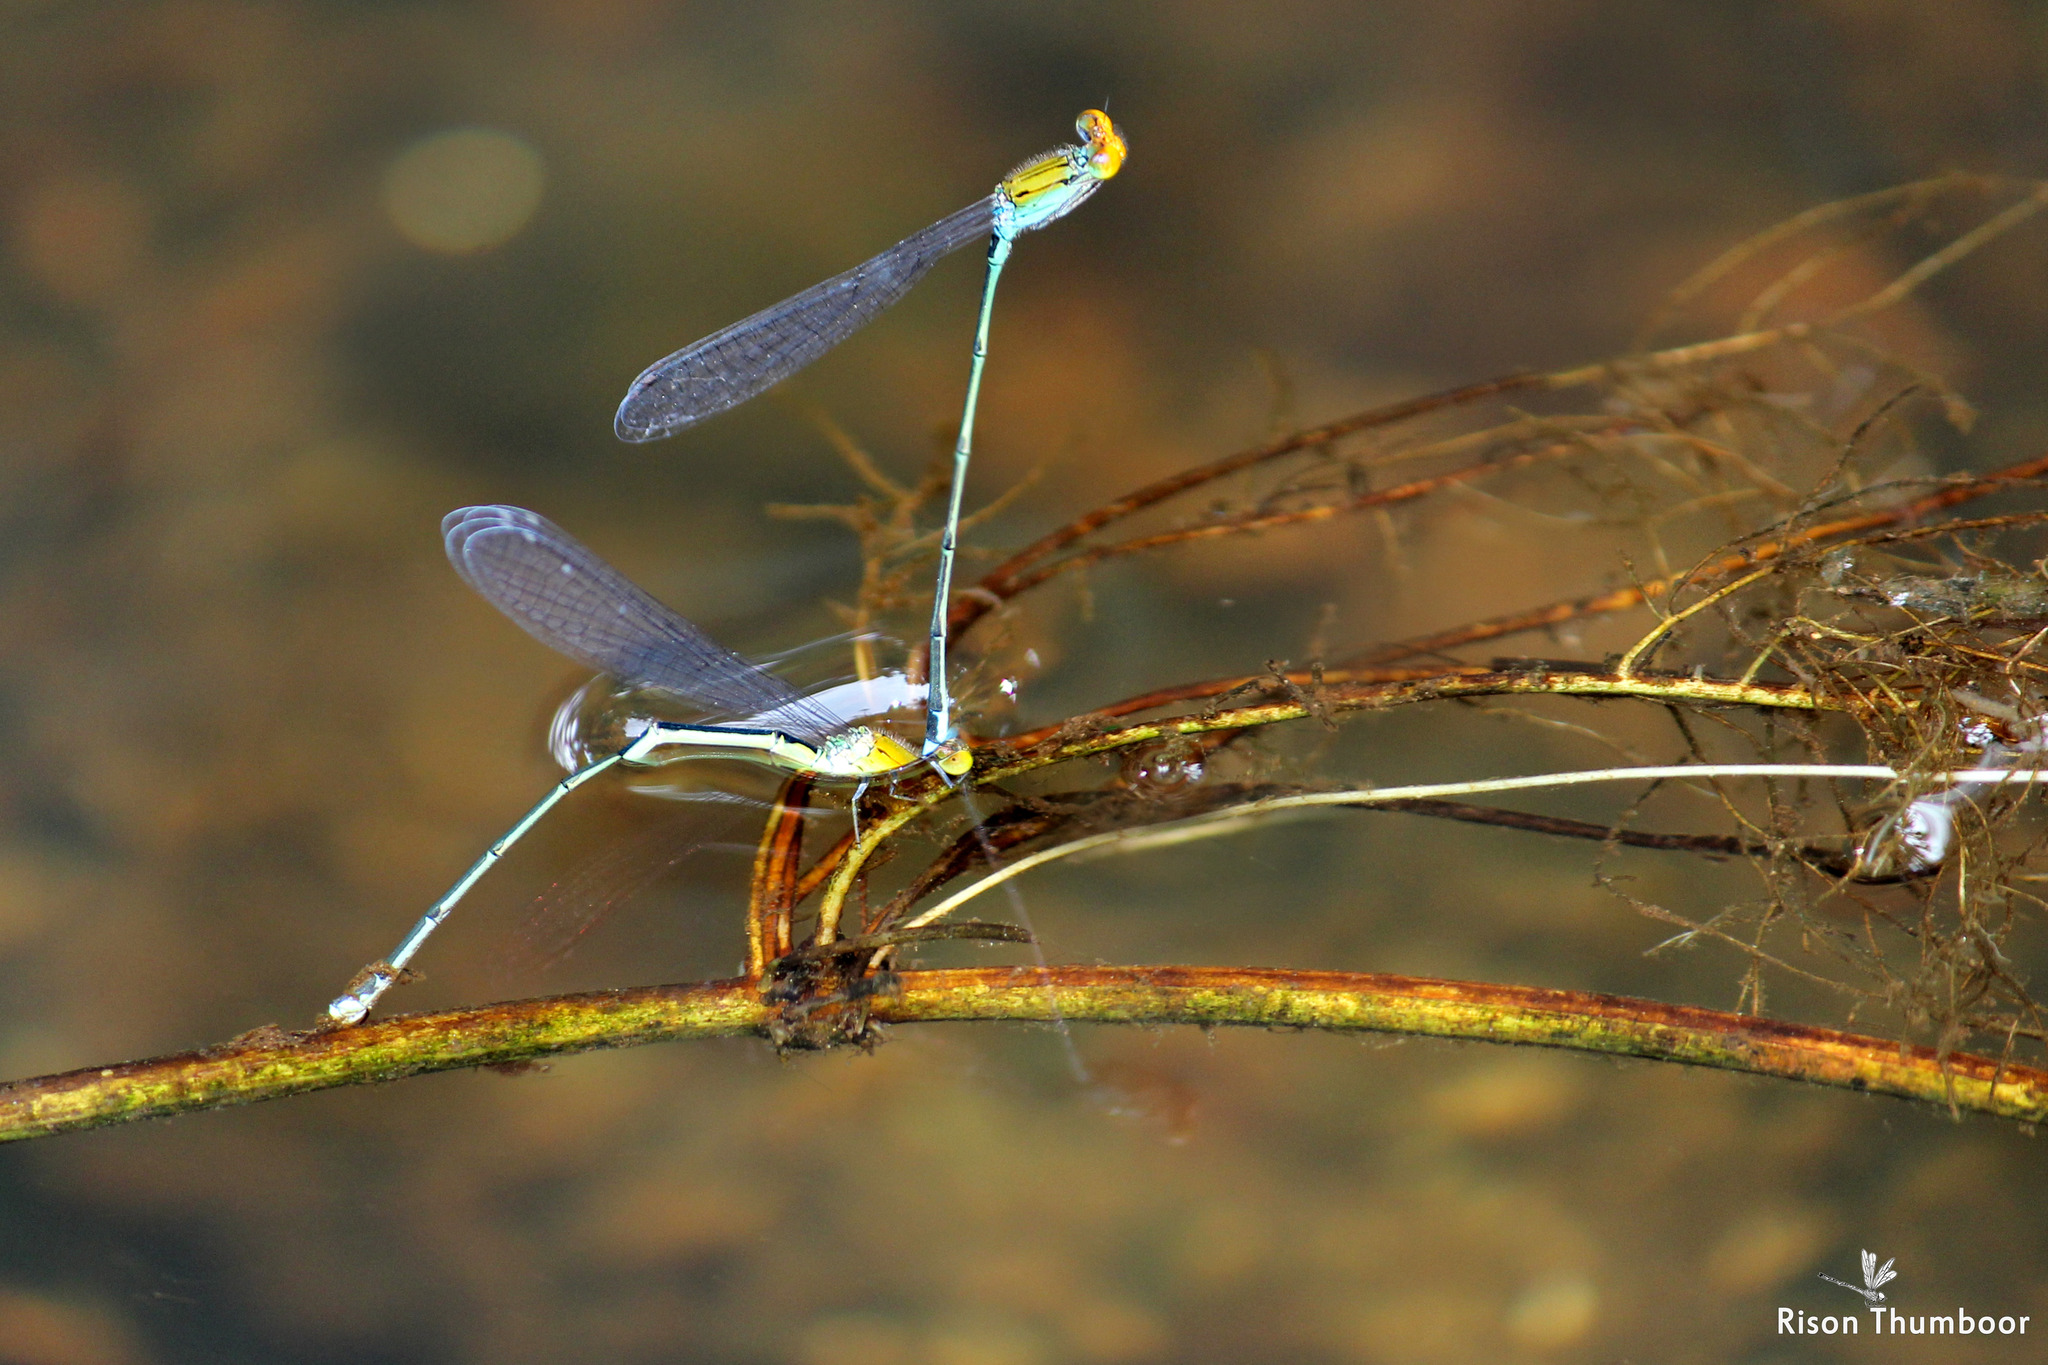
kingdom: Animalia
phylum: Arthropoda
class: Insecta
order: Odonata
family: Coenagrionidae
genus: Pseudagrion
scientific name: Pseudagrion rubriceps
